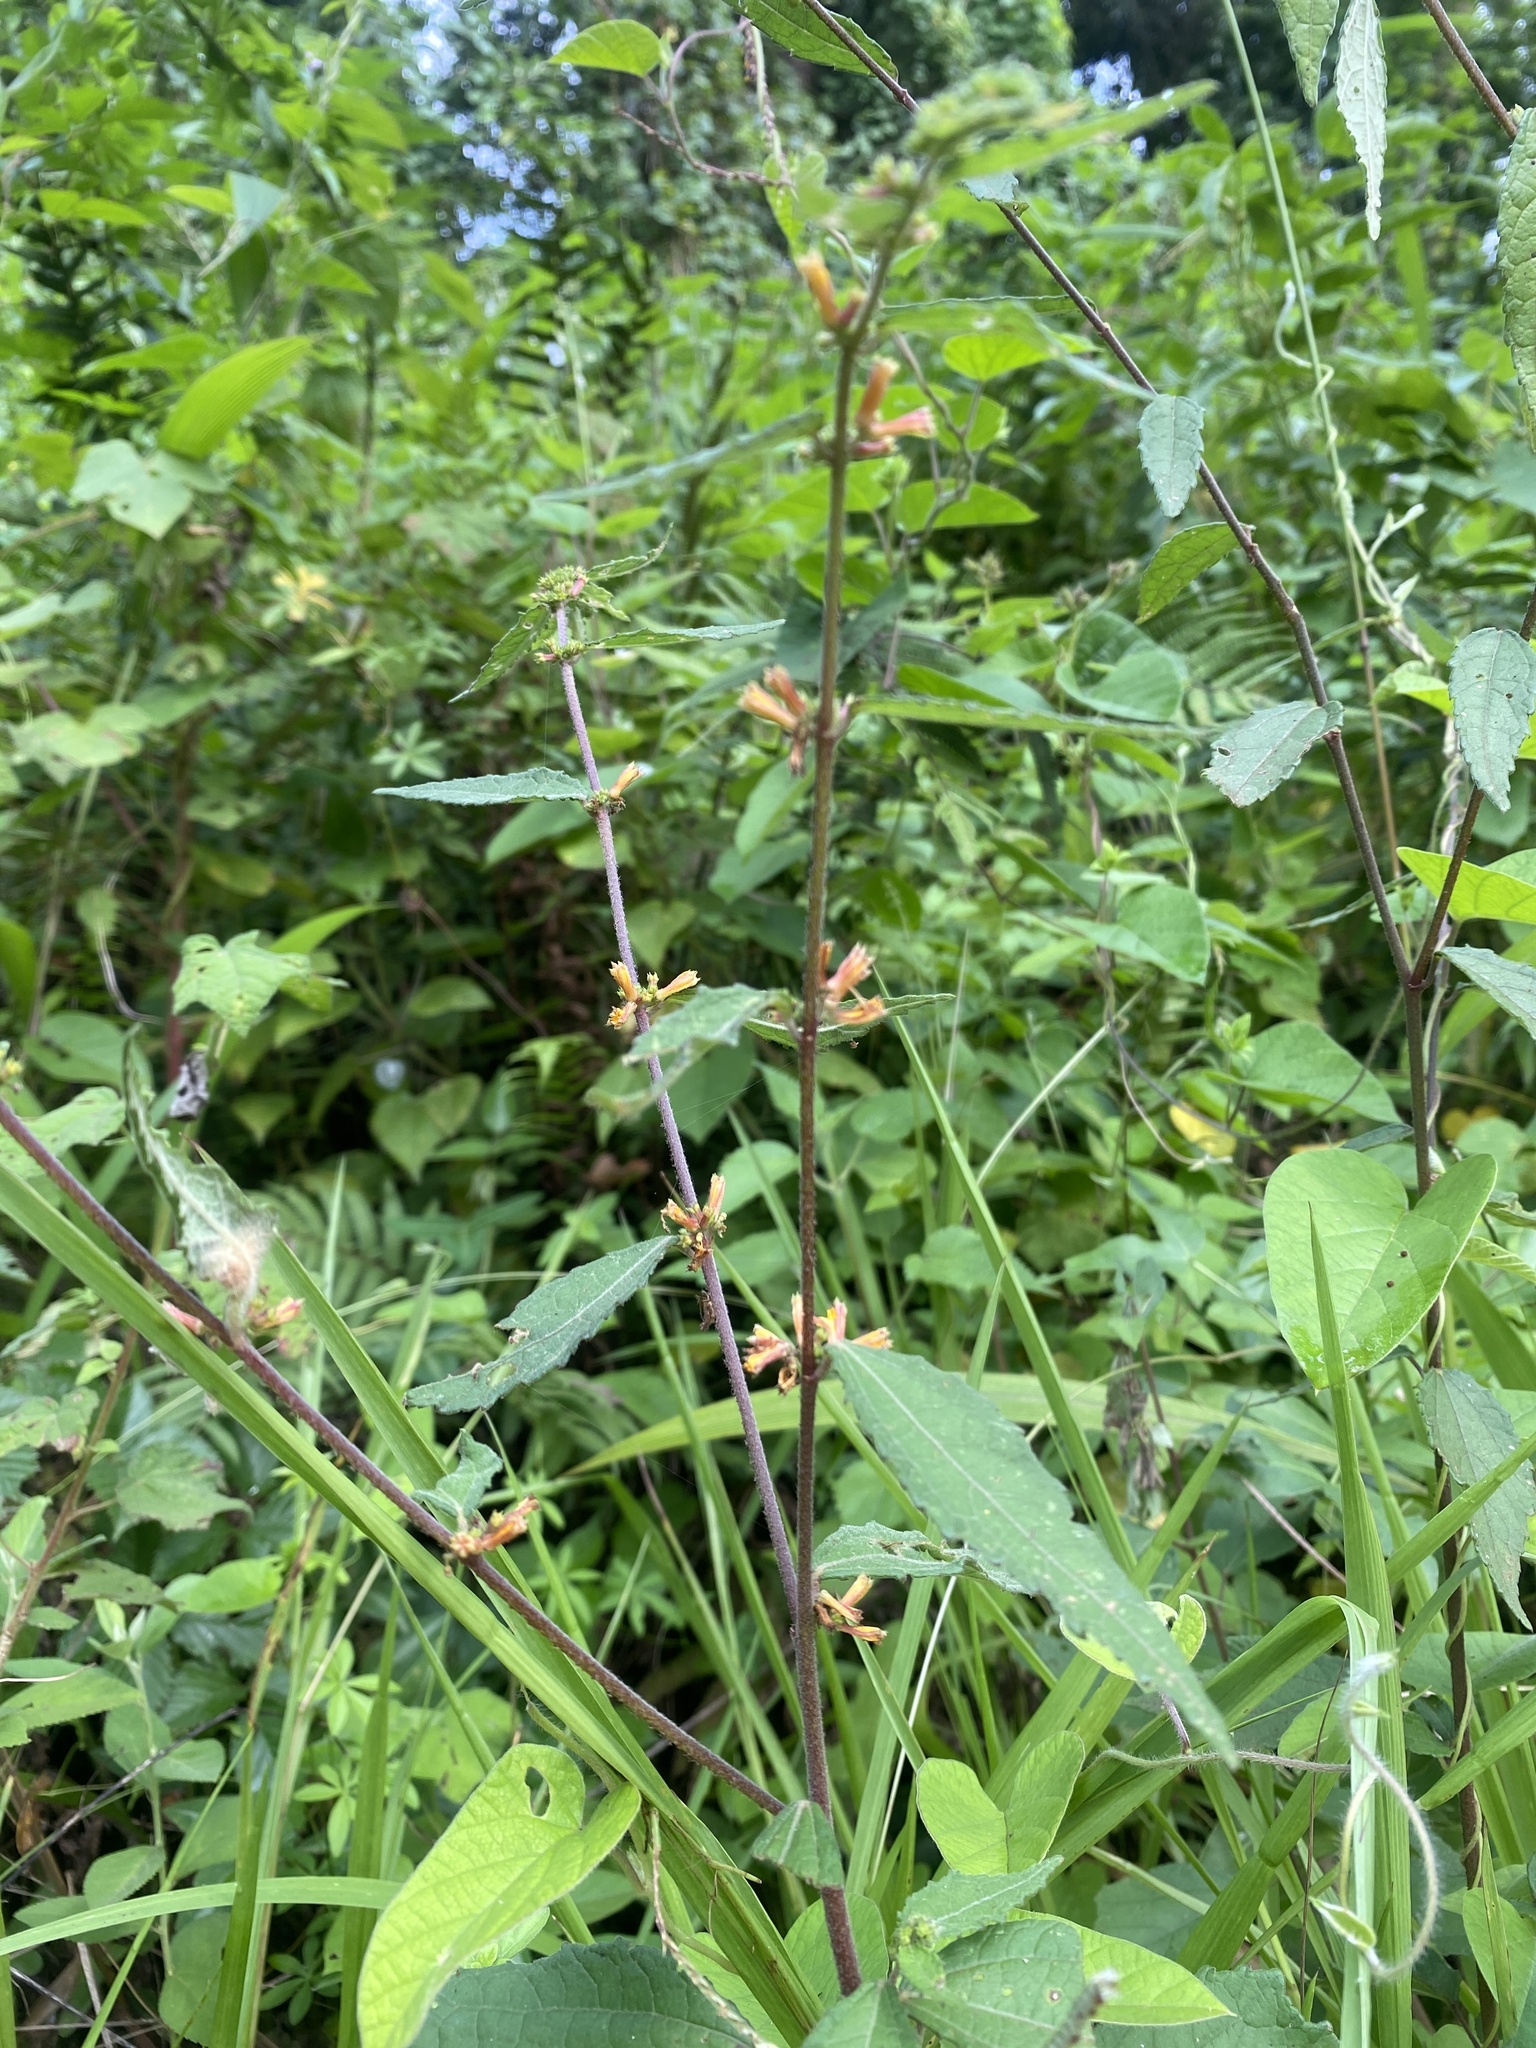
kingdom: Plantae
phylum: Tracheophyta
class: Magnoliopsida
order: Malvales
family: Malvaceae
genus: Triumfetta
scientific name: Triumfetta pilosa
